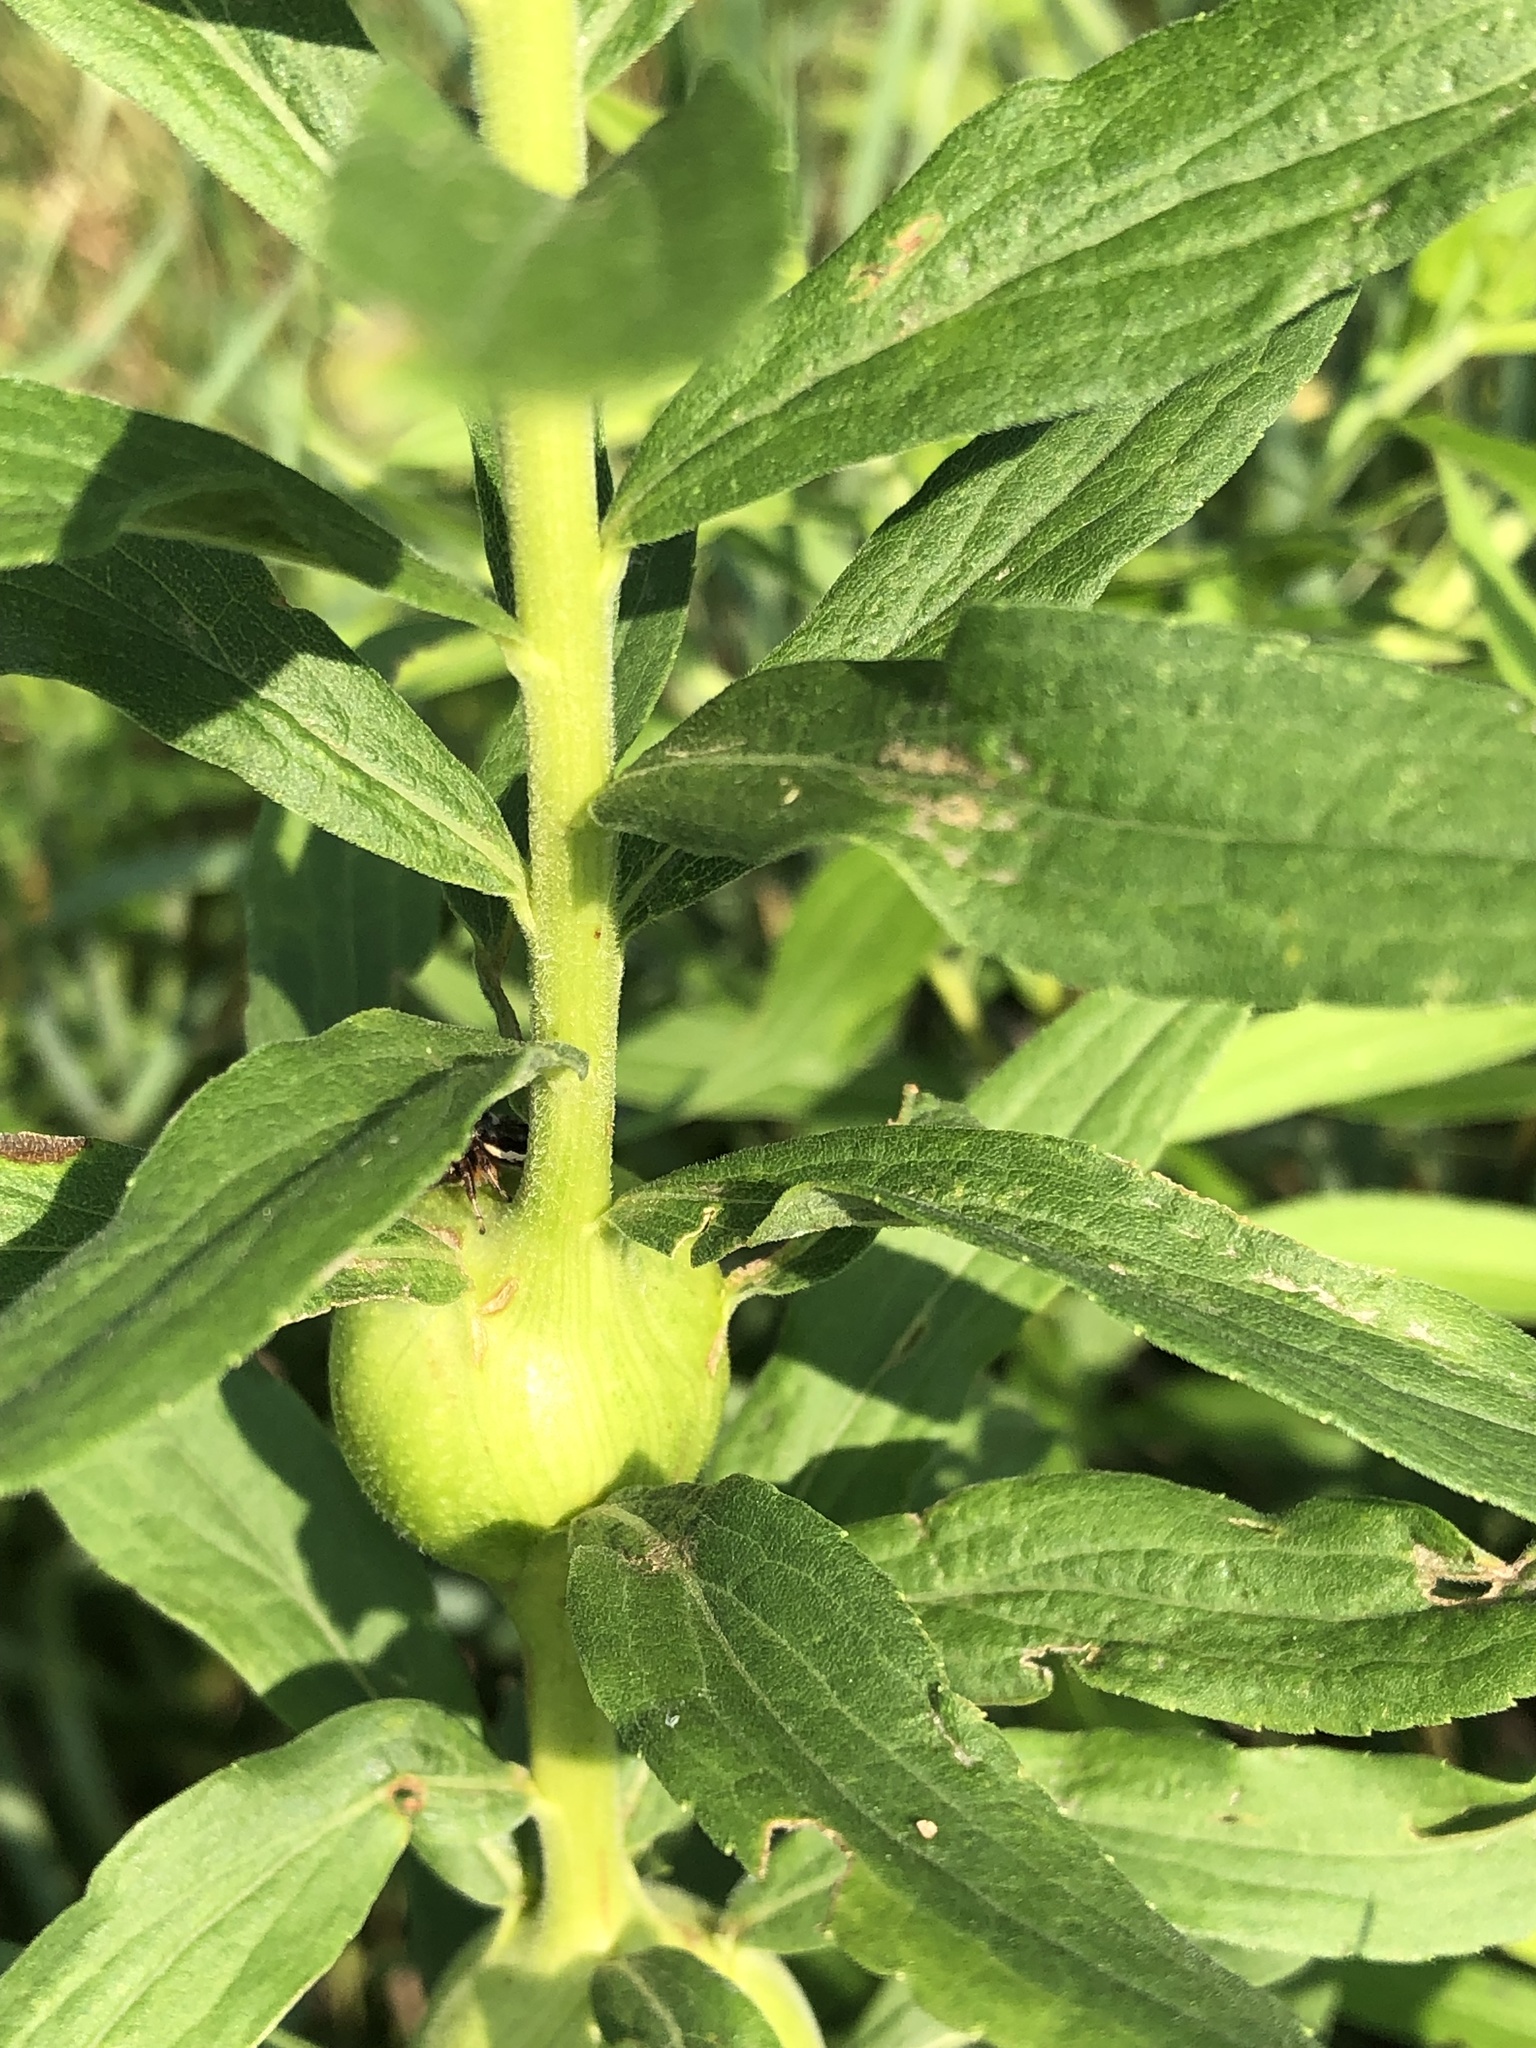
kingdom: Animalia
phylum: Arthropoda
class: Insecta
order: Diptera
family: Tephritidae
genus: Eurosta
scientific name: Eurosta solidaginis
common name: Goldenrod gall fly
